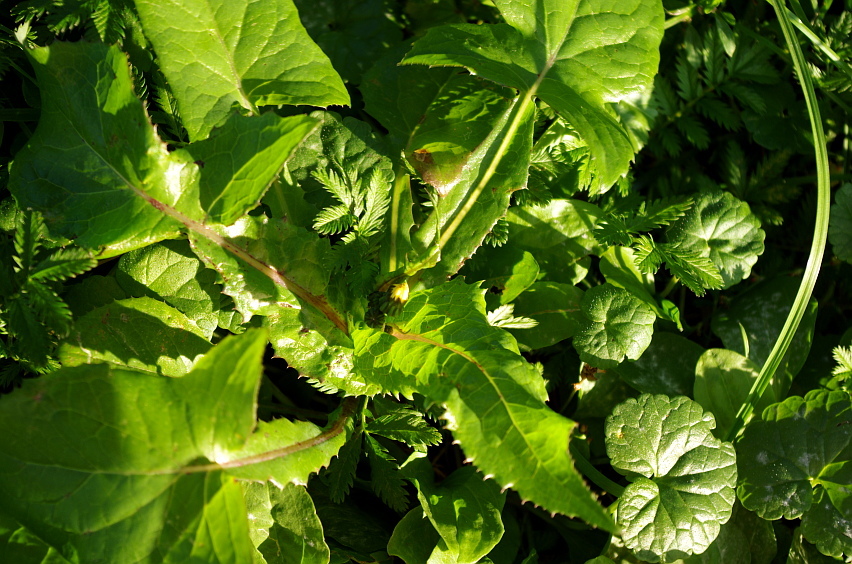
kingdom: Plantae
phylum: Tracheophyta
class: Magnoliopsida
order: Asterales
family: Asteraceae
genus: Sonchus
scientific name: Sonchus oleraceus
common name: Common sowthistle
